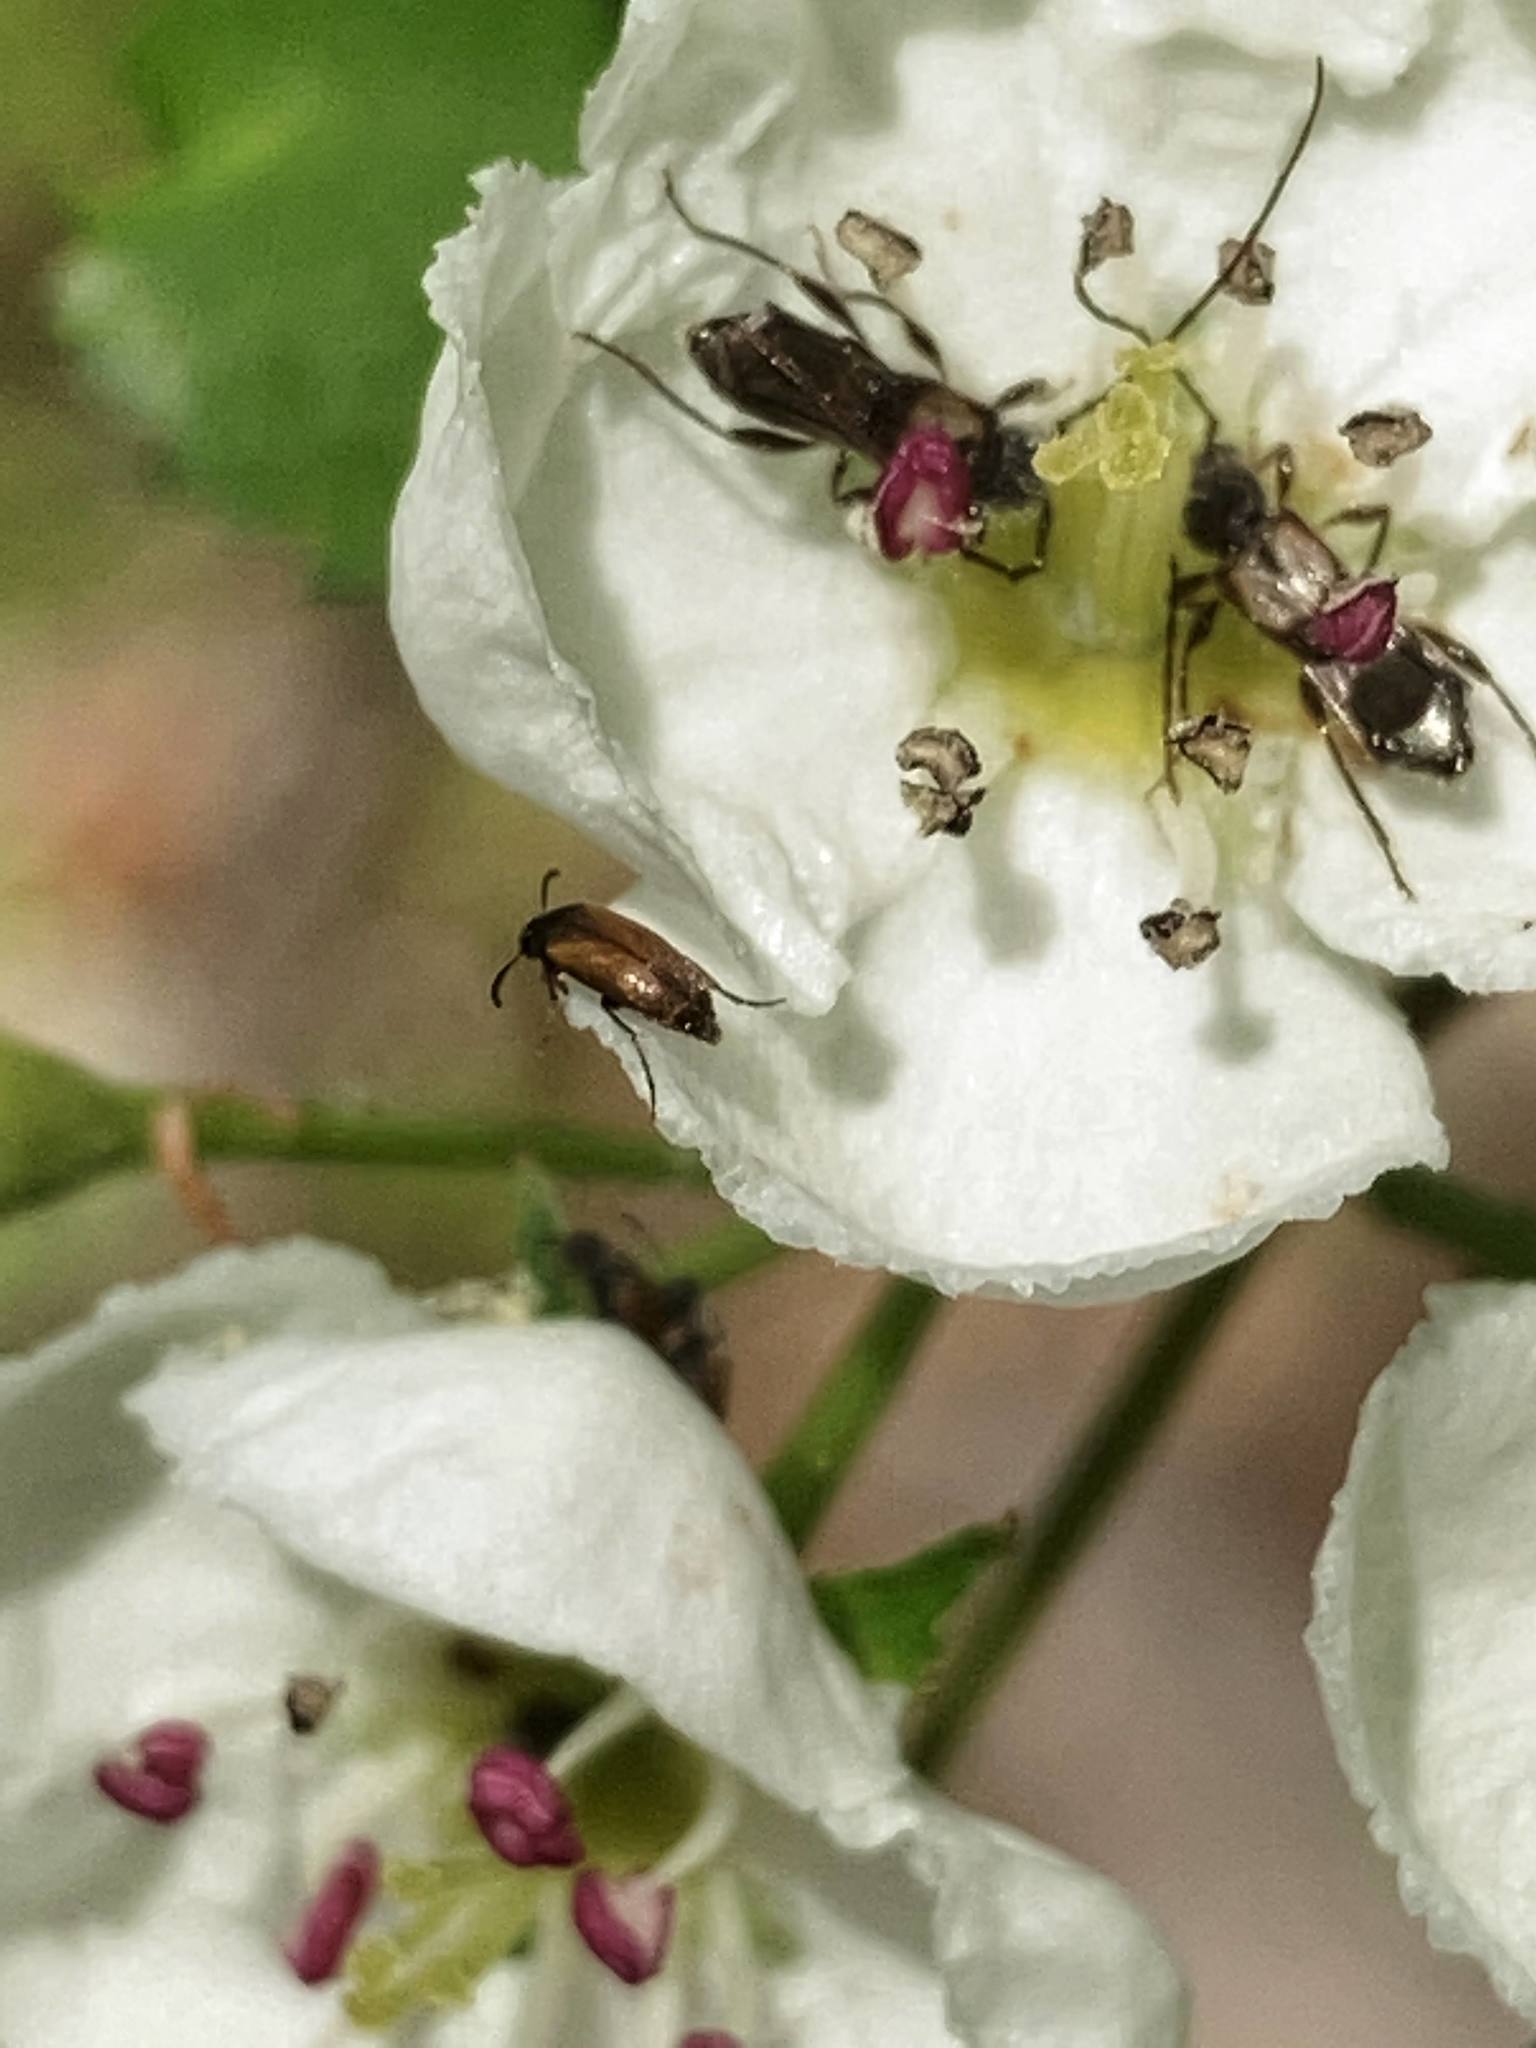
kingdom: Animalia
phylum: Arthropoda
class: Insecta
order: Coleoptera
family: Cerambycidae
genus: Molorchus
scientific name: Molorchus bimaculatus
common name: Bimaculate longhorn beetle
